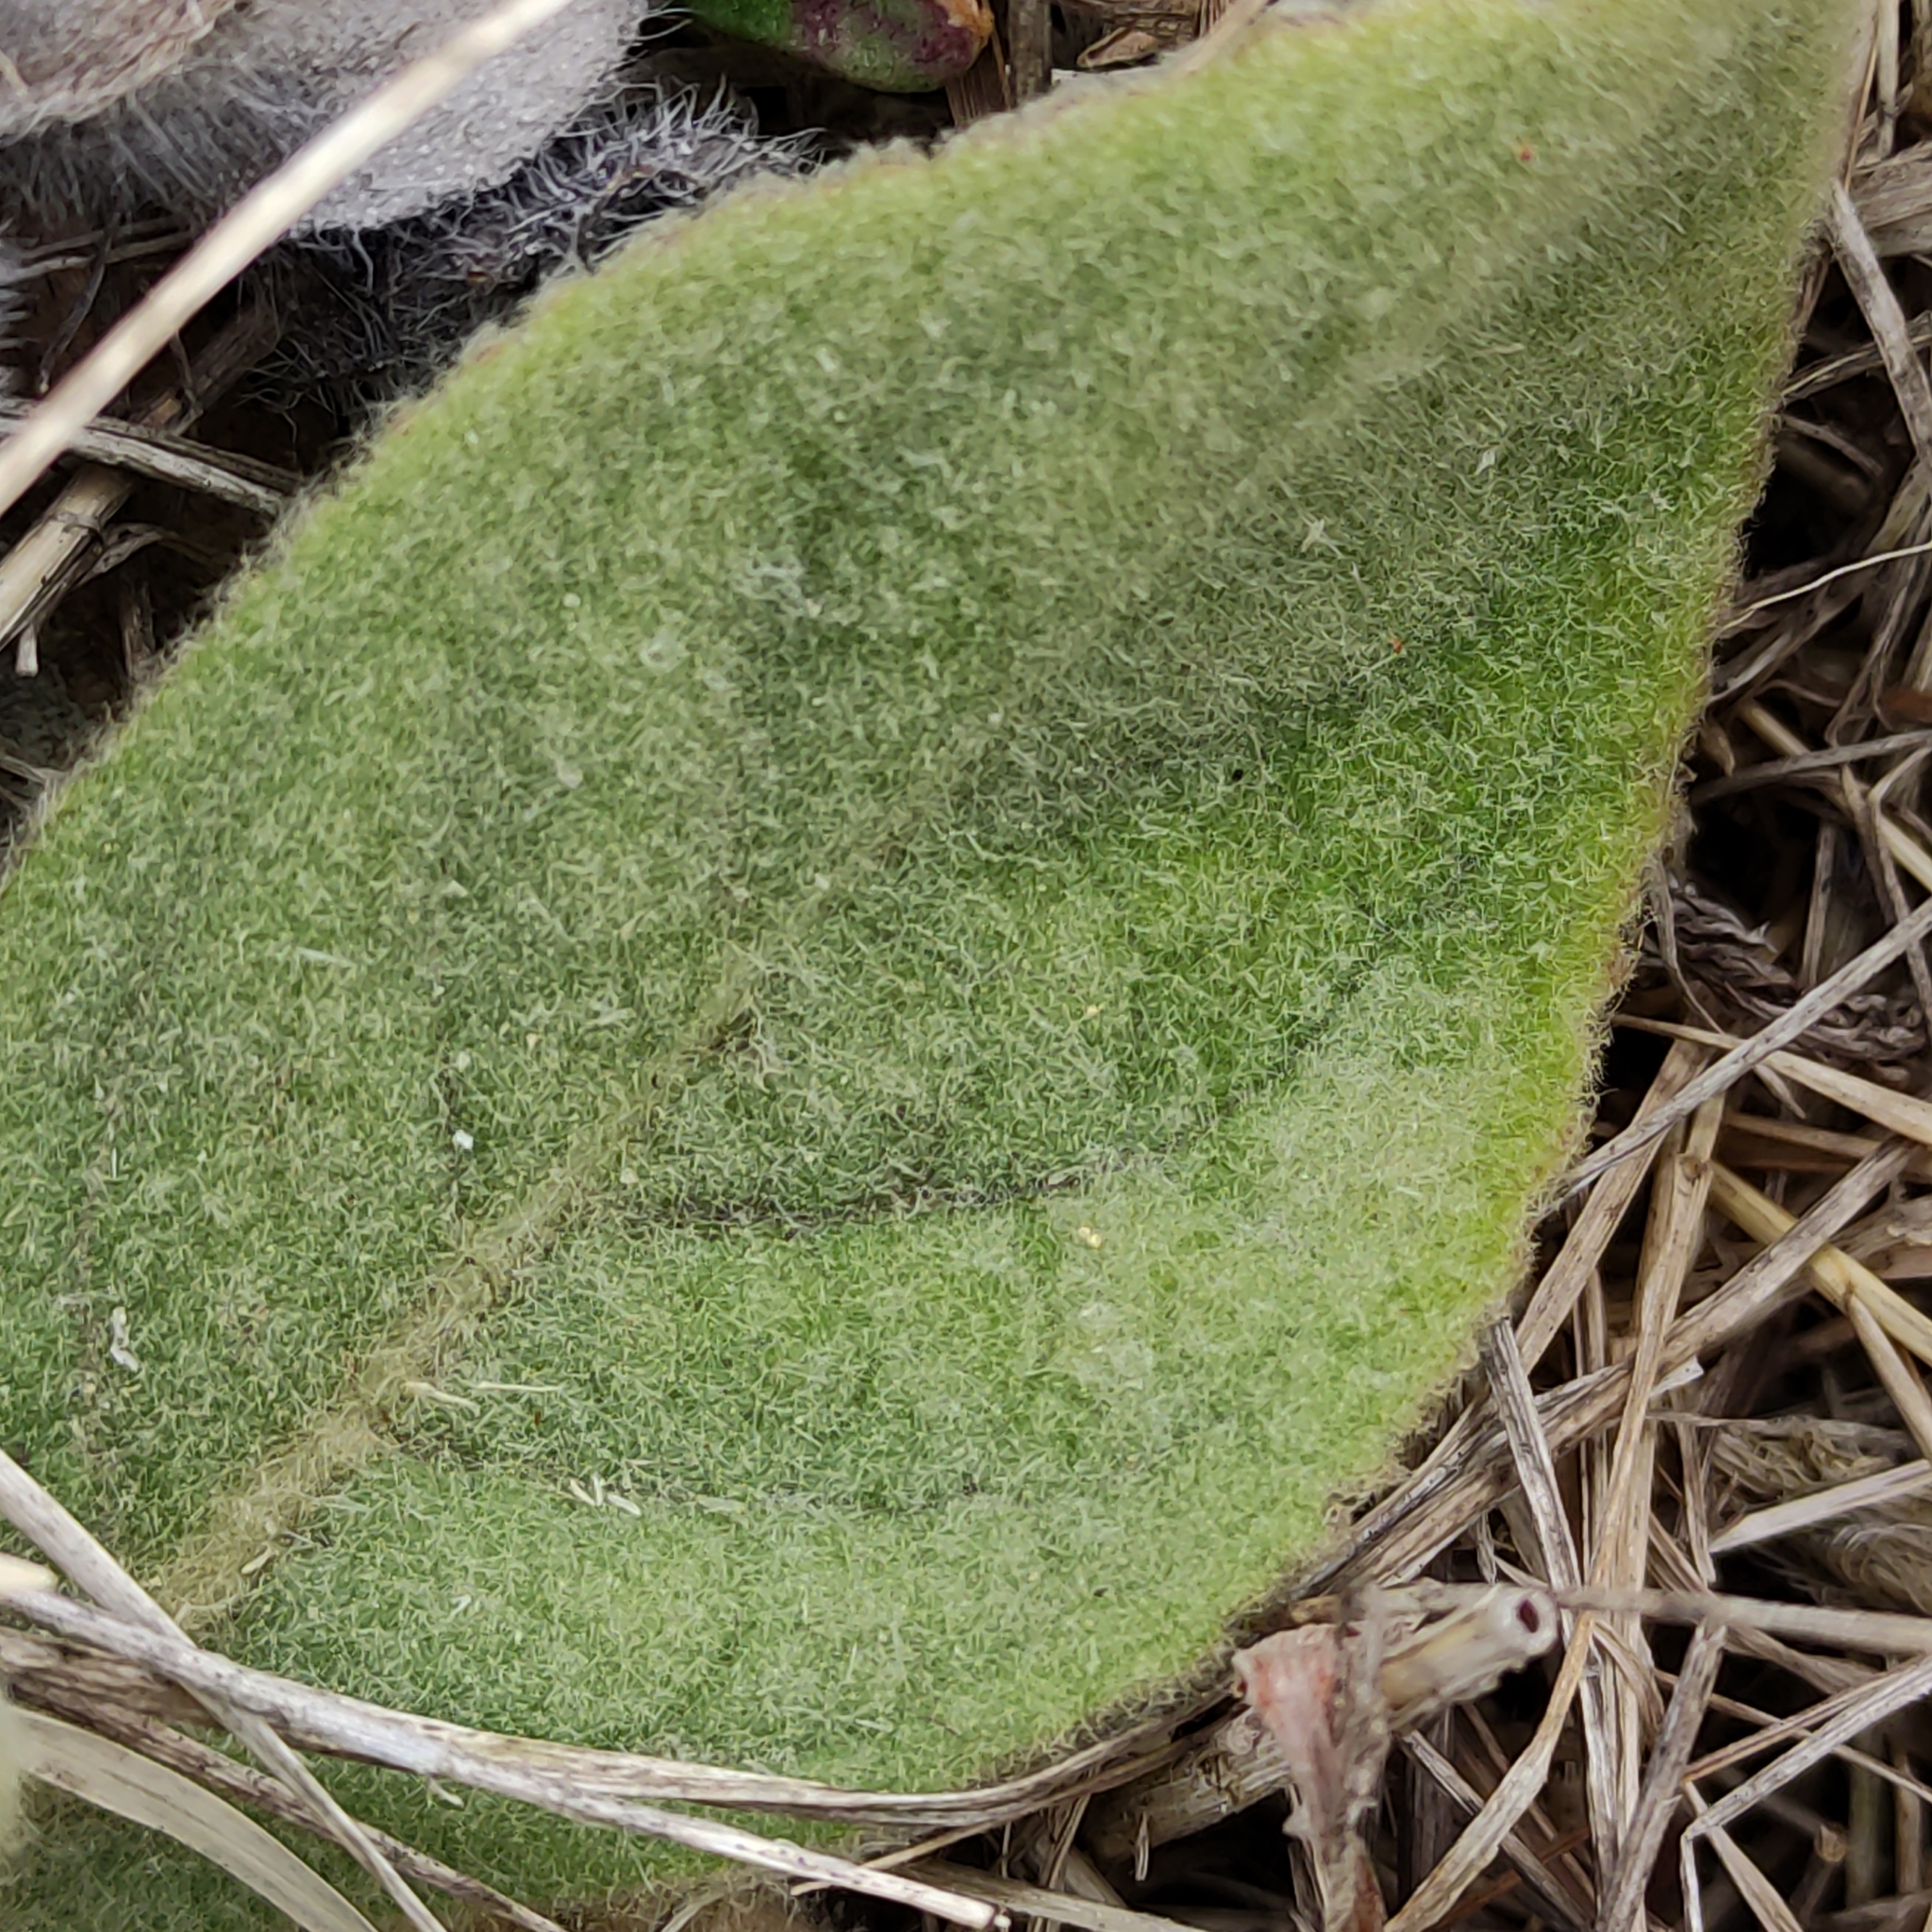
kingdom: Plantae
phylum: Tracheophyta
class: Magnoliopsida
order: Lamiales
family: Scrophulariaceae
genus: Verbascum
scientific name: Verbascum thapsus
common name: Common mullein
